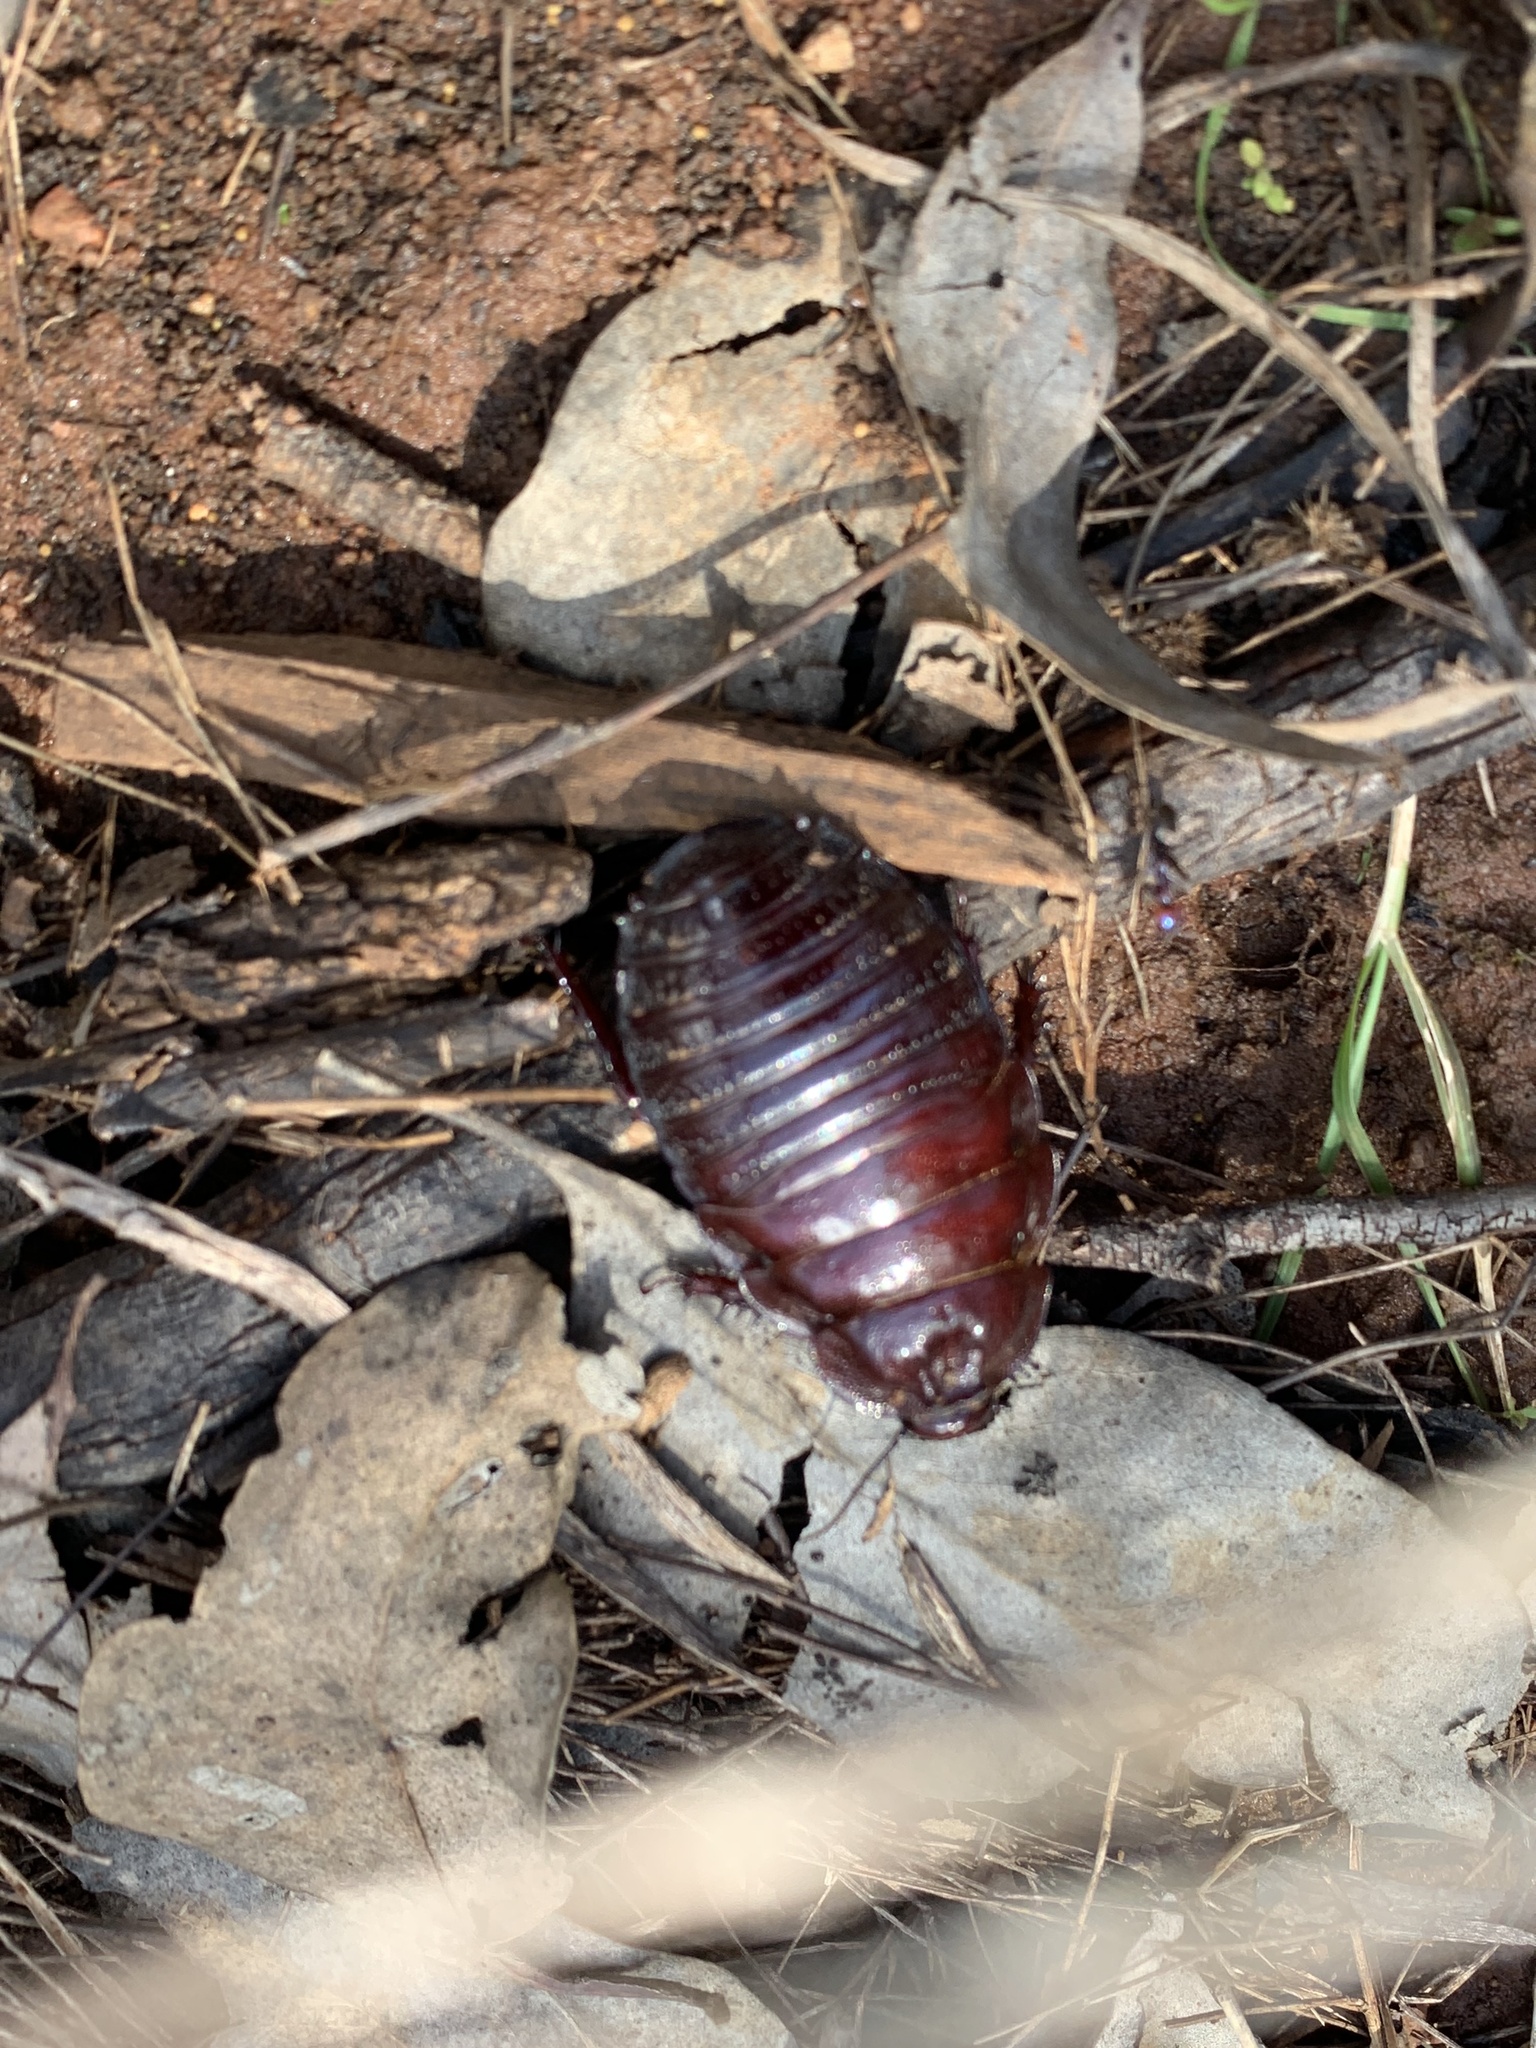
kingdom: Animalia
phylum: Arthropoda
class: Insecta
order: Blattodea
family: Blaberidae
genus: Geoscapheus
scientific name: Geoscapheus dilatatus
